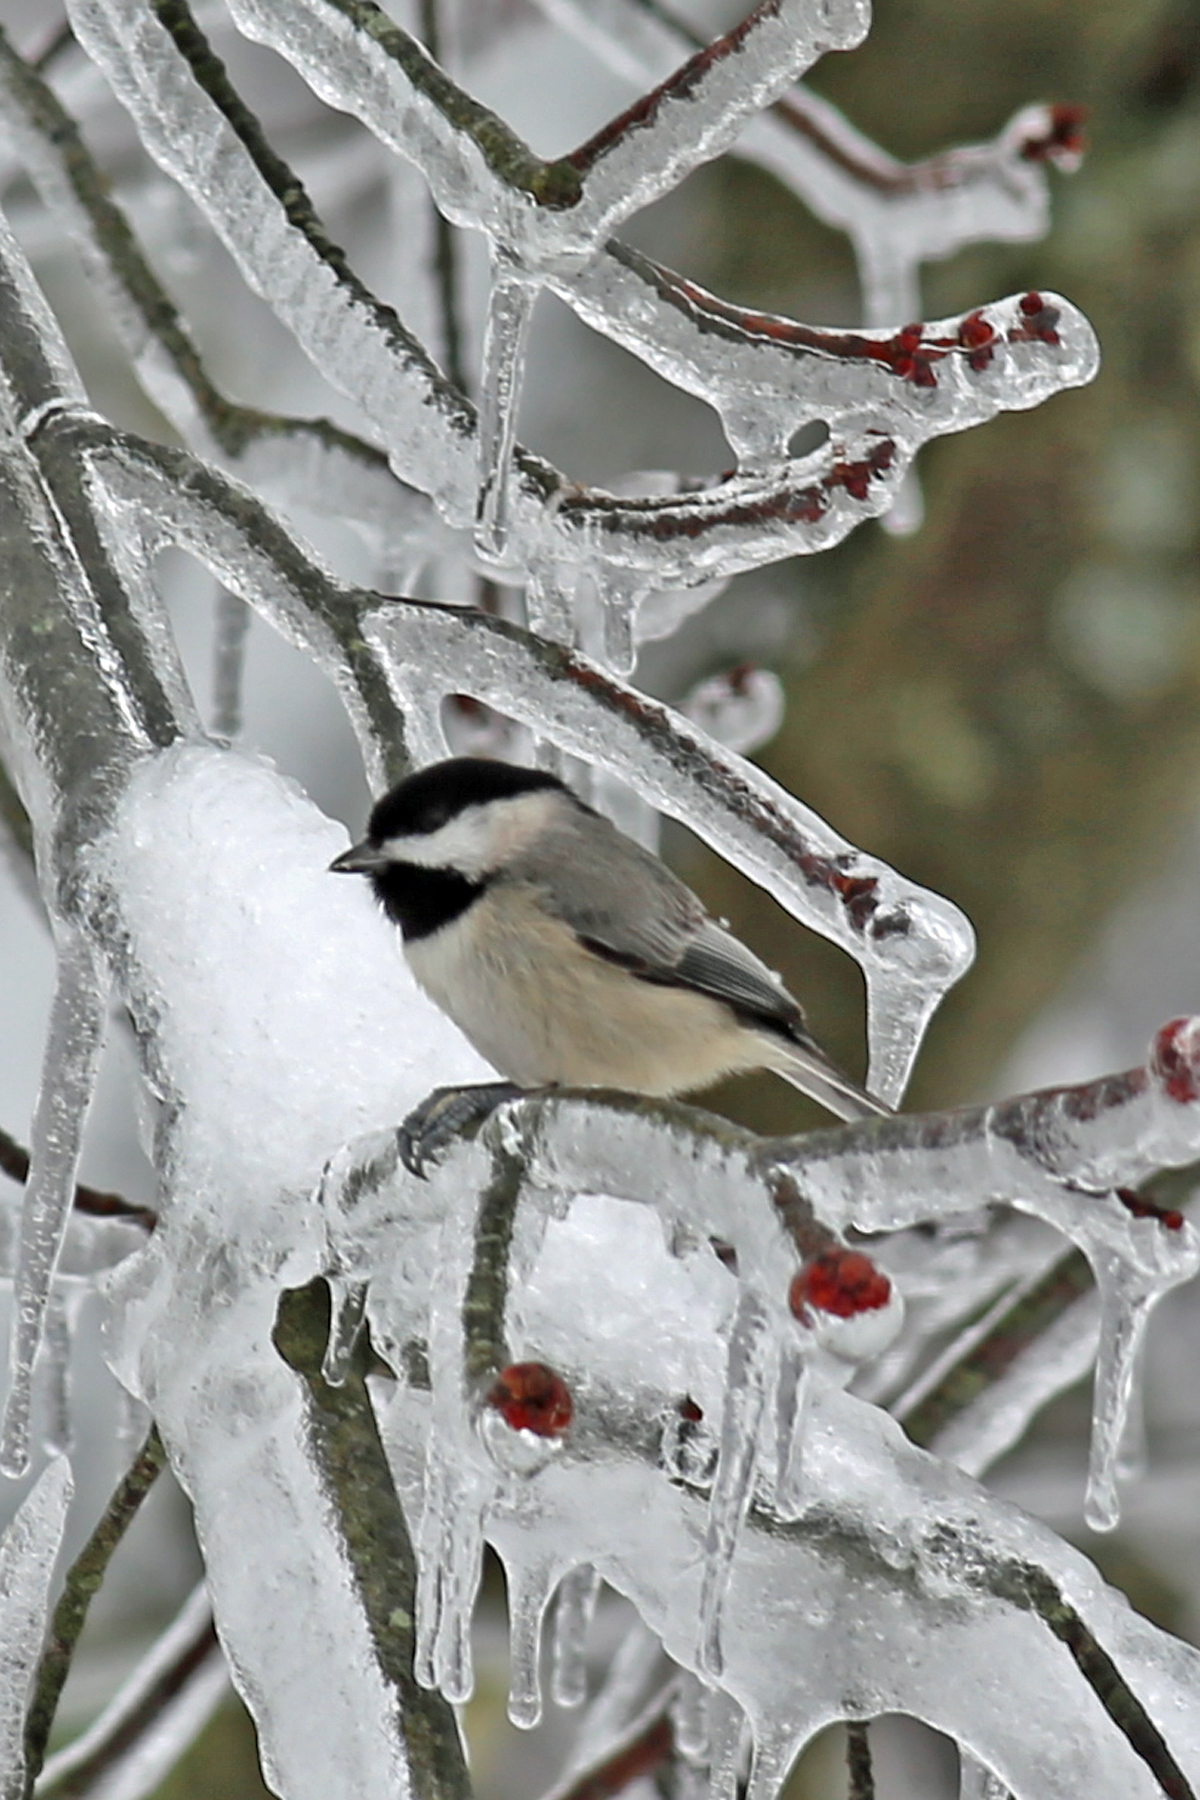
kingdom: Animalia
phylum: Chordata
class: Aves
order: Passeriformes
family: Paridae
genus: Poecile
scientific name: Poecile carolinensis
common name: Carolina chickadee
